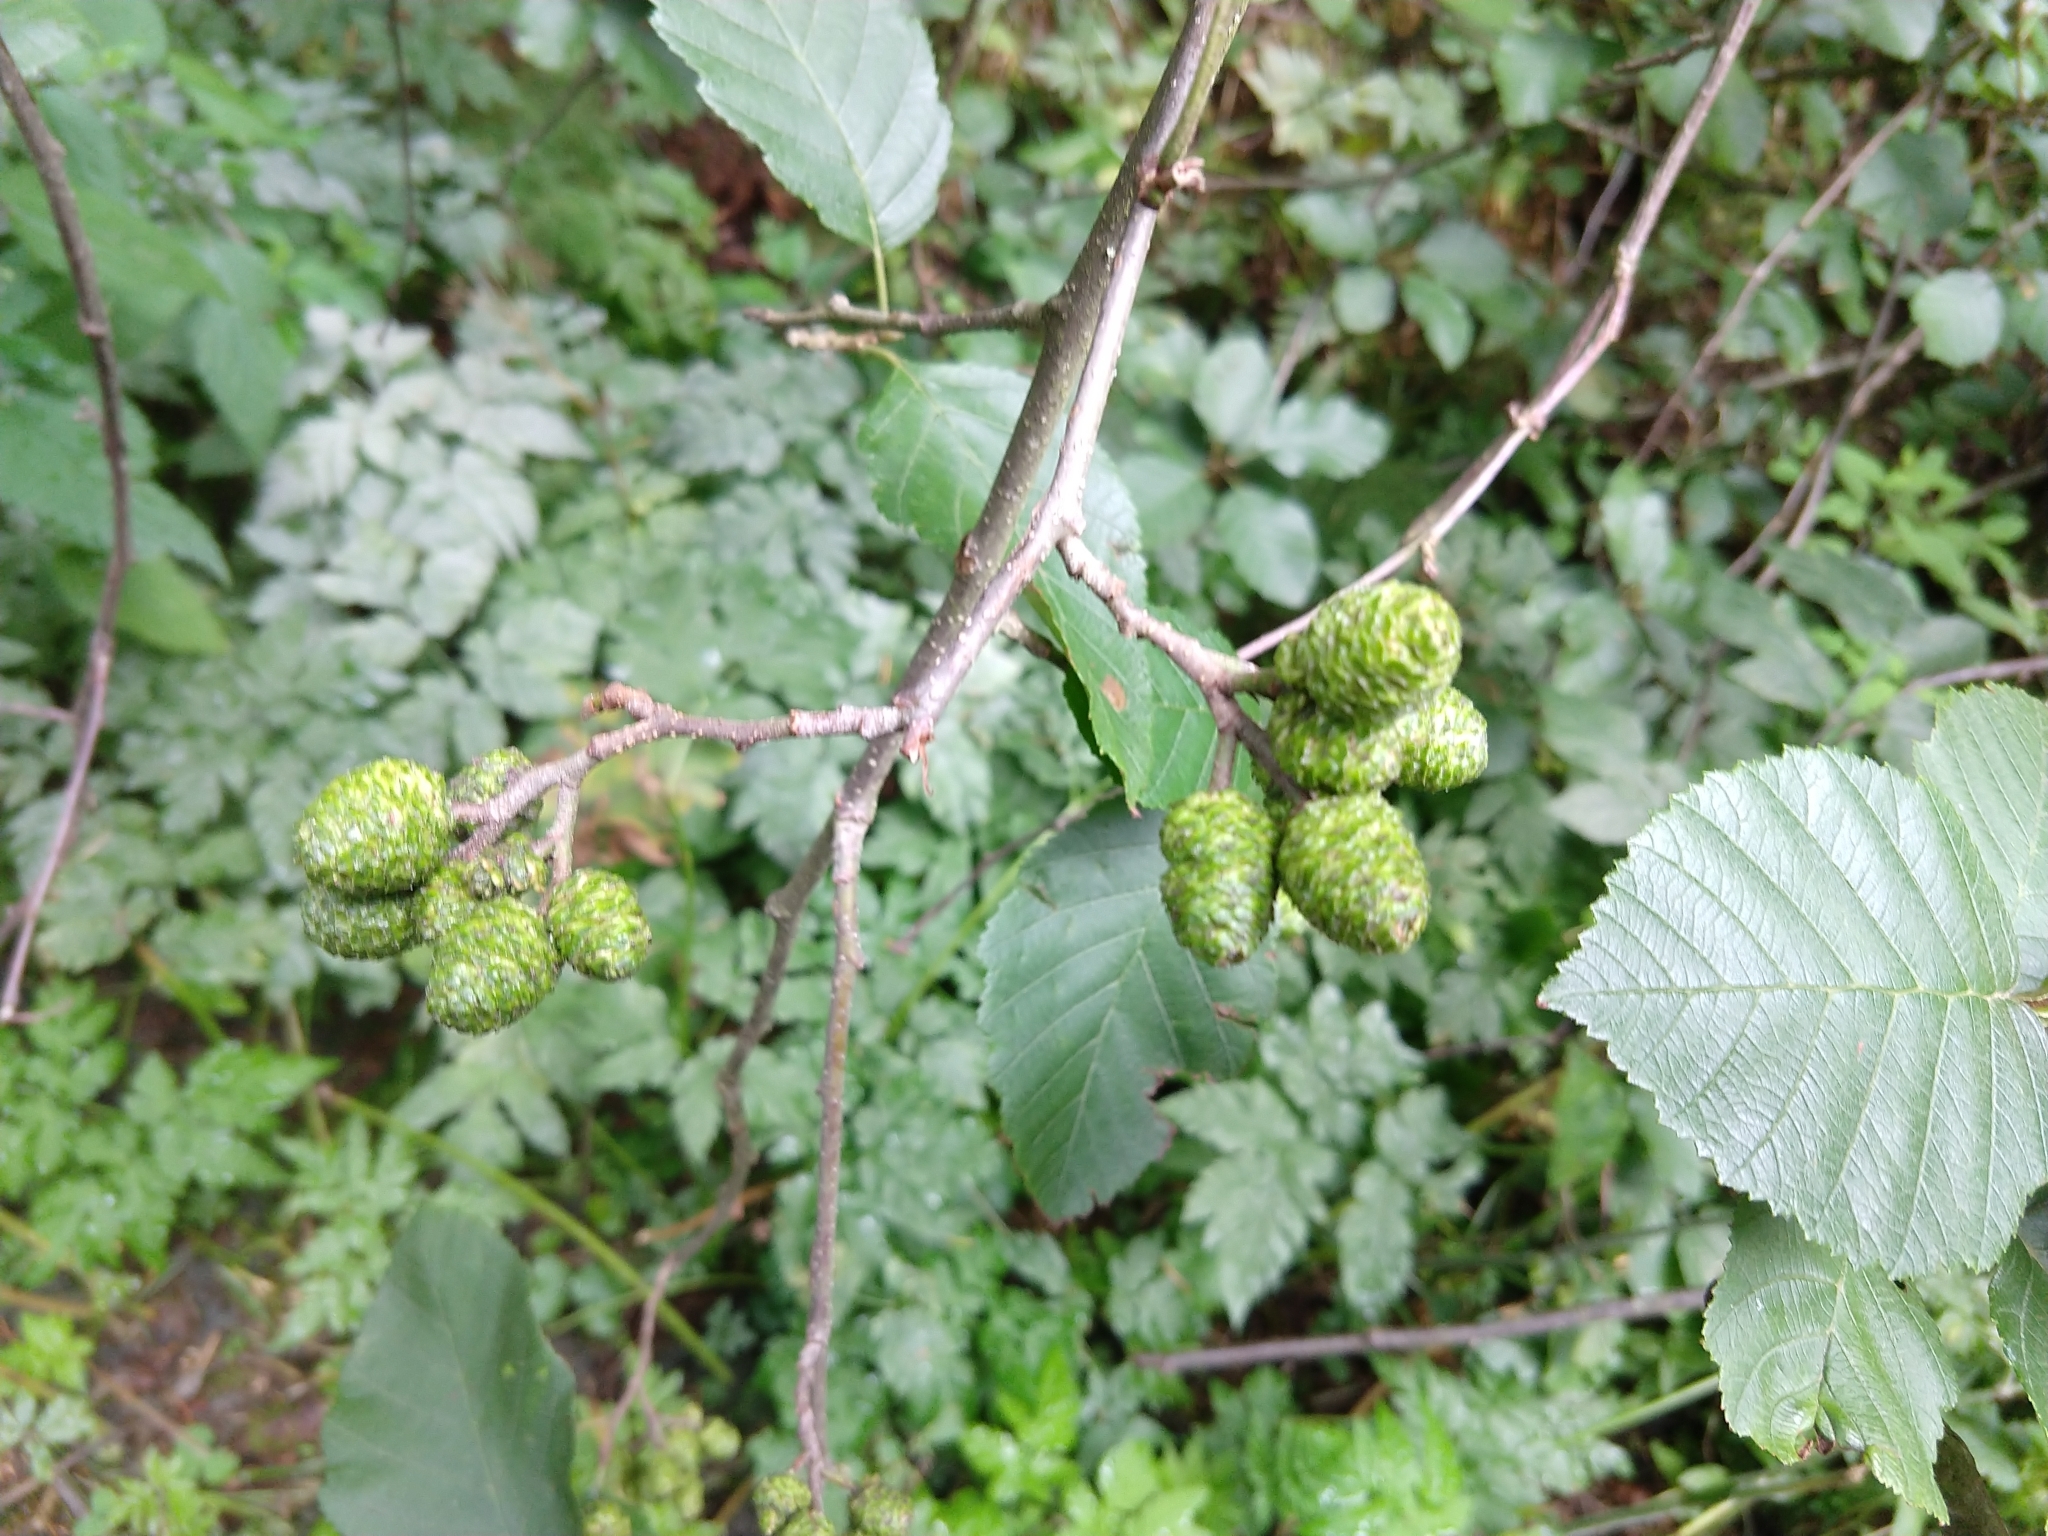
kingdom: Plantae
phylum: Tracheophyta
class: Magnoliopsida
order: Fagales
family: Betulaceae
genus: Alnus
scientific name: Alnus incana
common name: Grey alder
